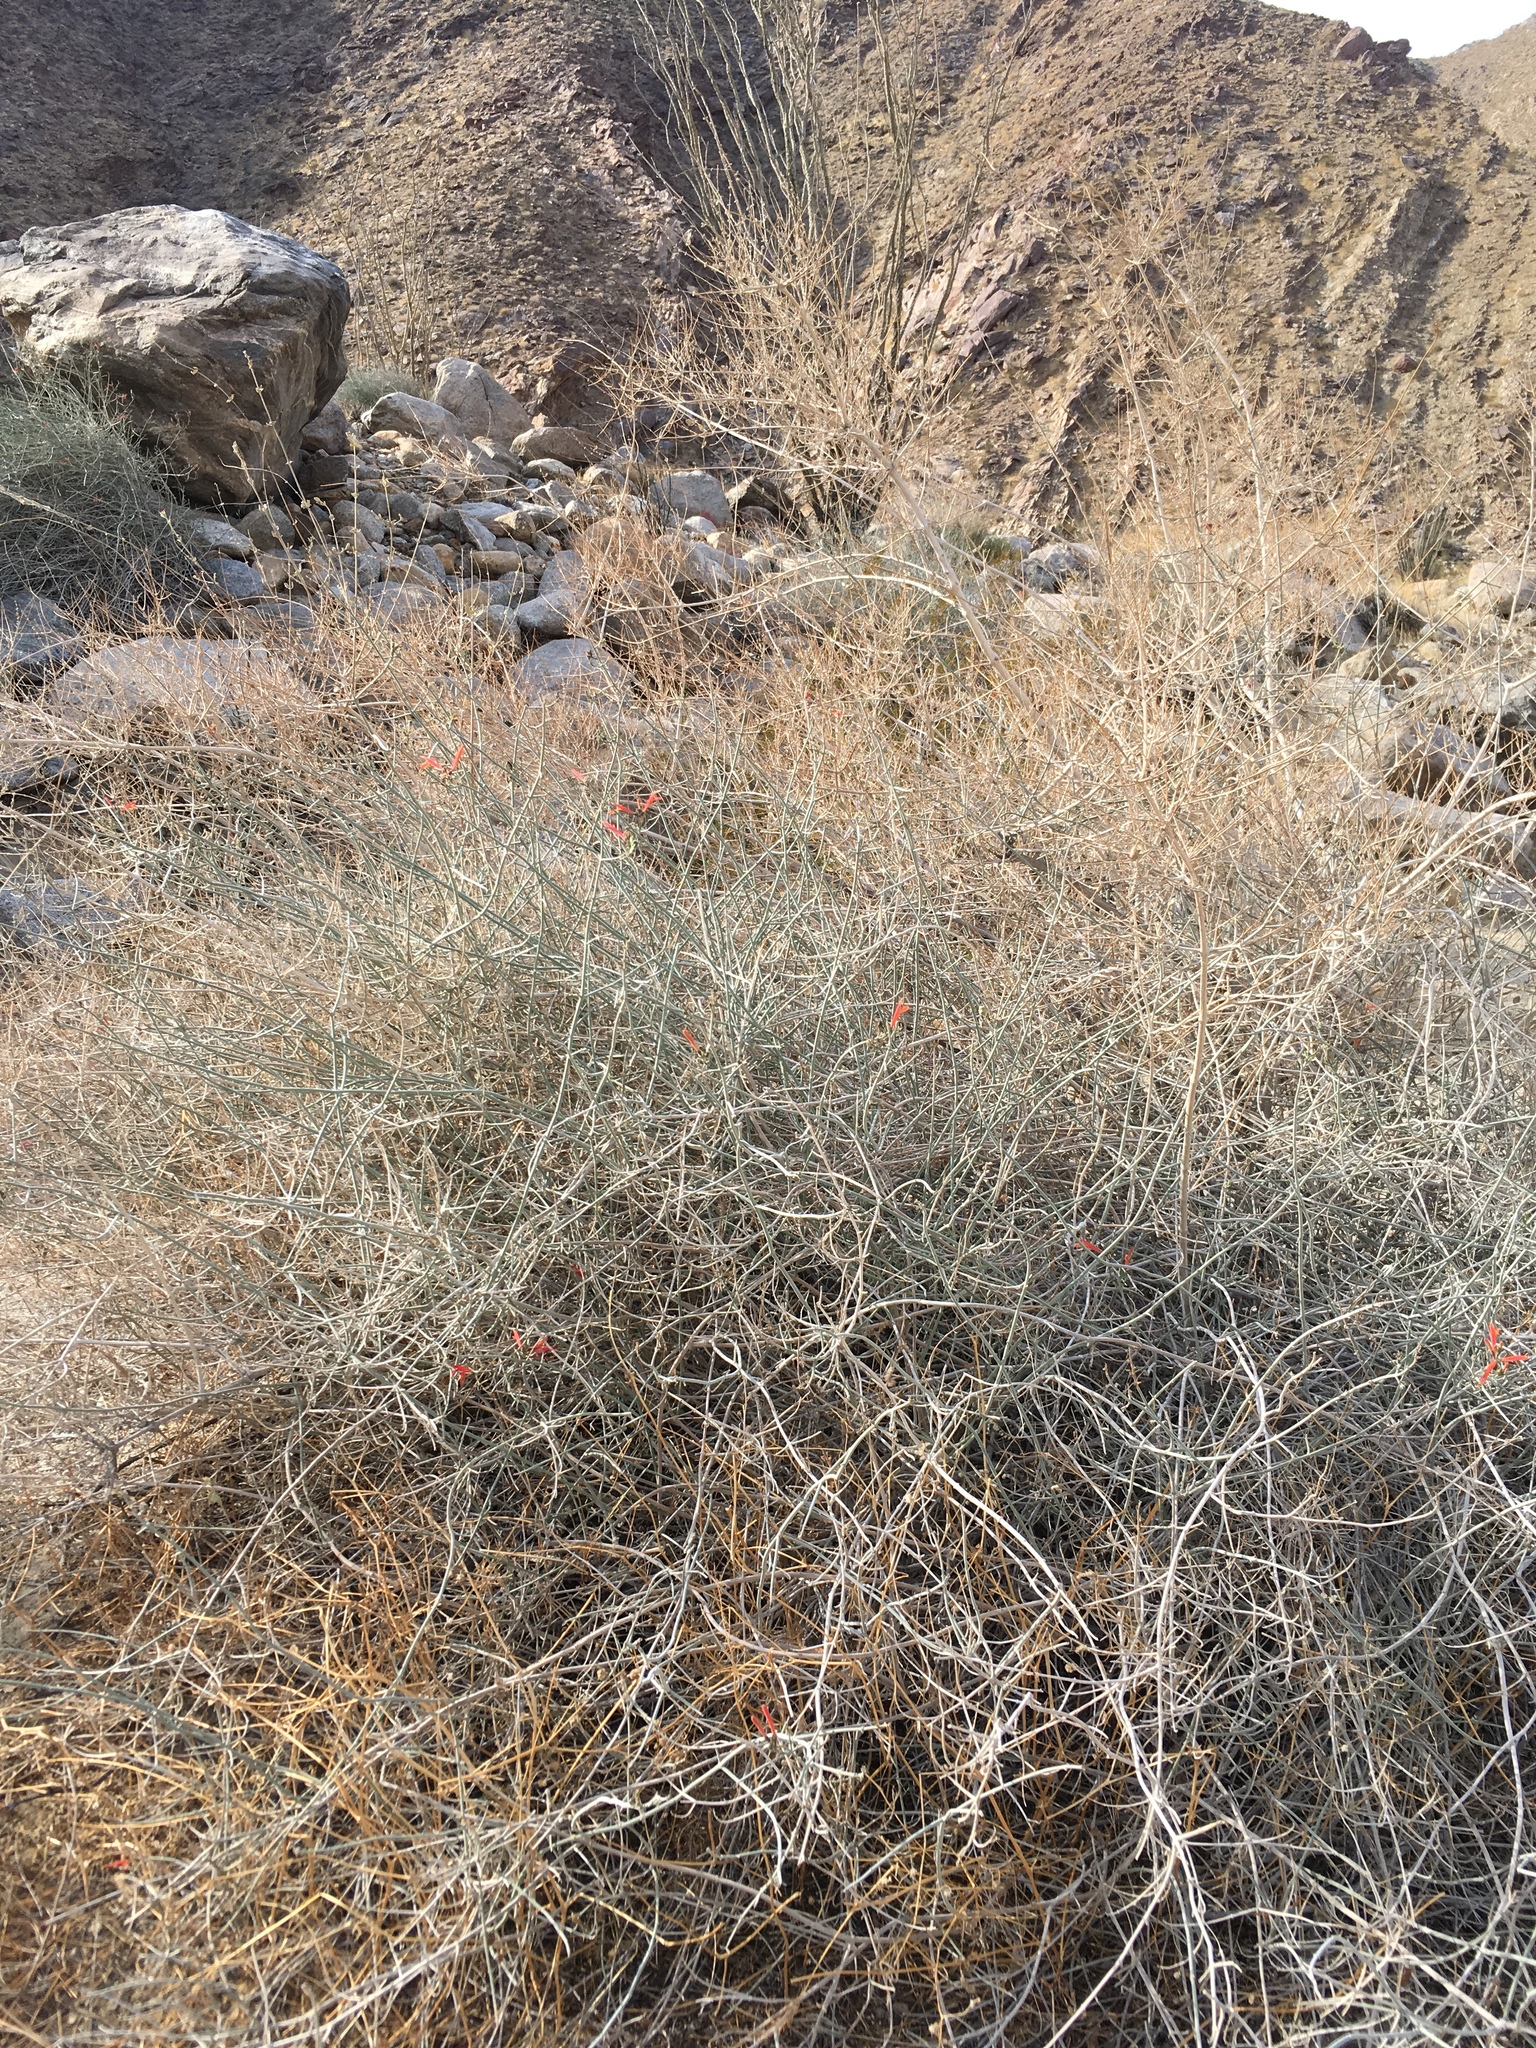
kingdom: Plantae
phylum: Tracheophyta
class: Magnoliopsida
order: Lamiales
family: Acanthaceae
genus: Justicia
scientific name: Justicia californica
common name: Chuparosa-honeysuckle
